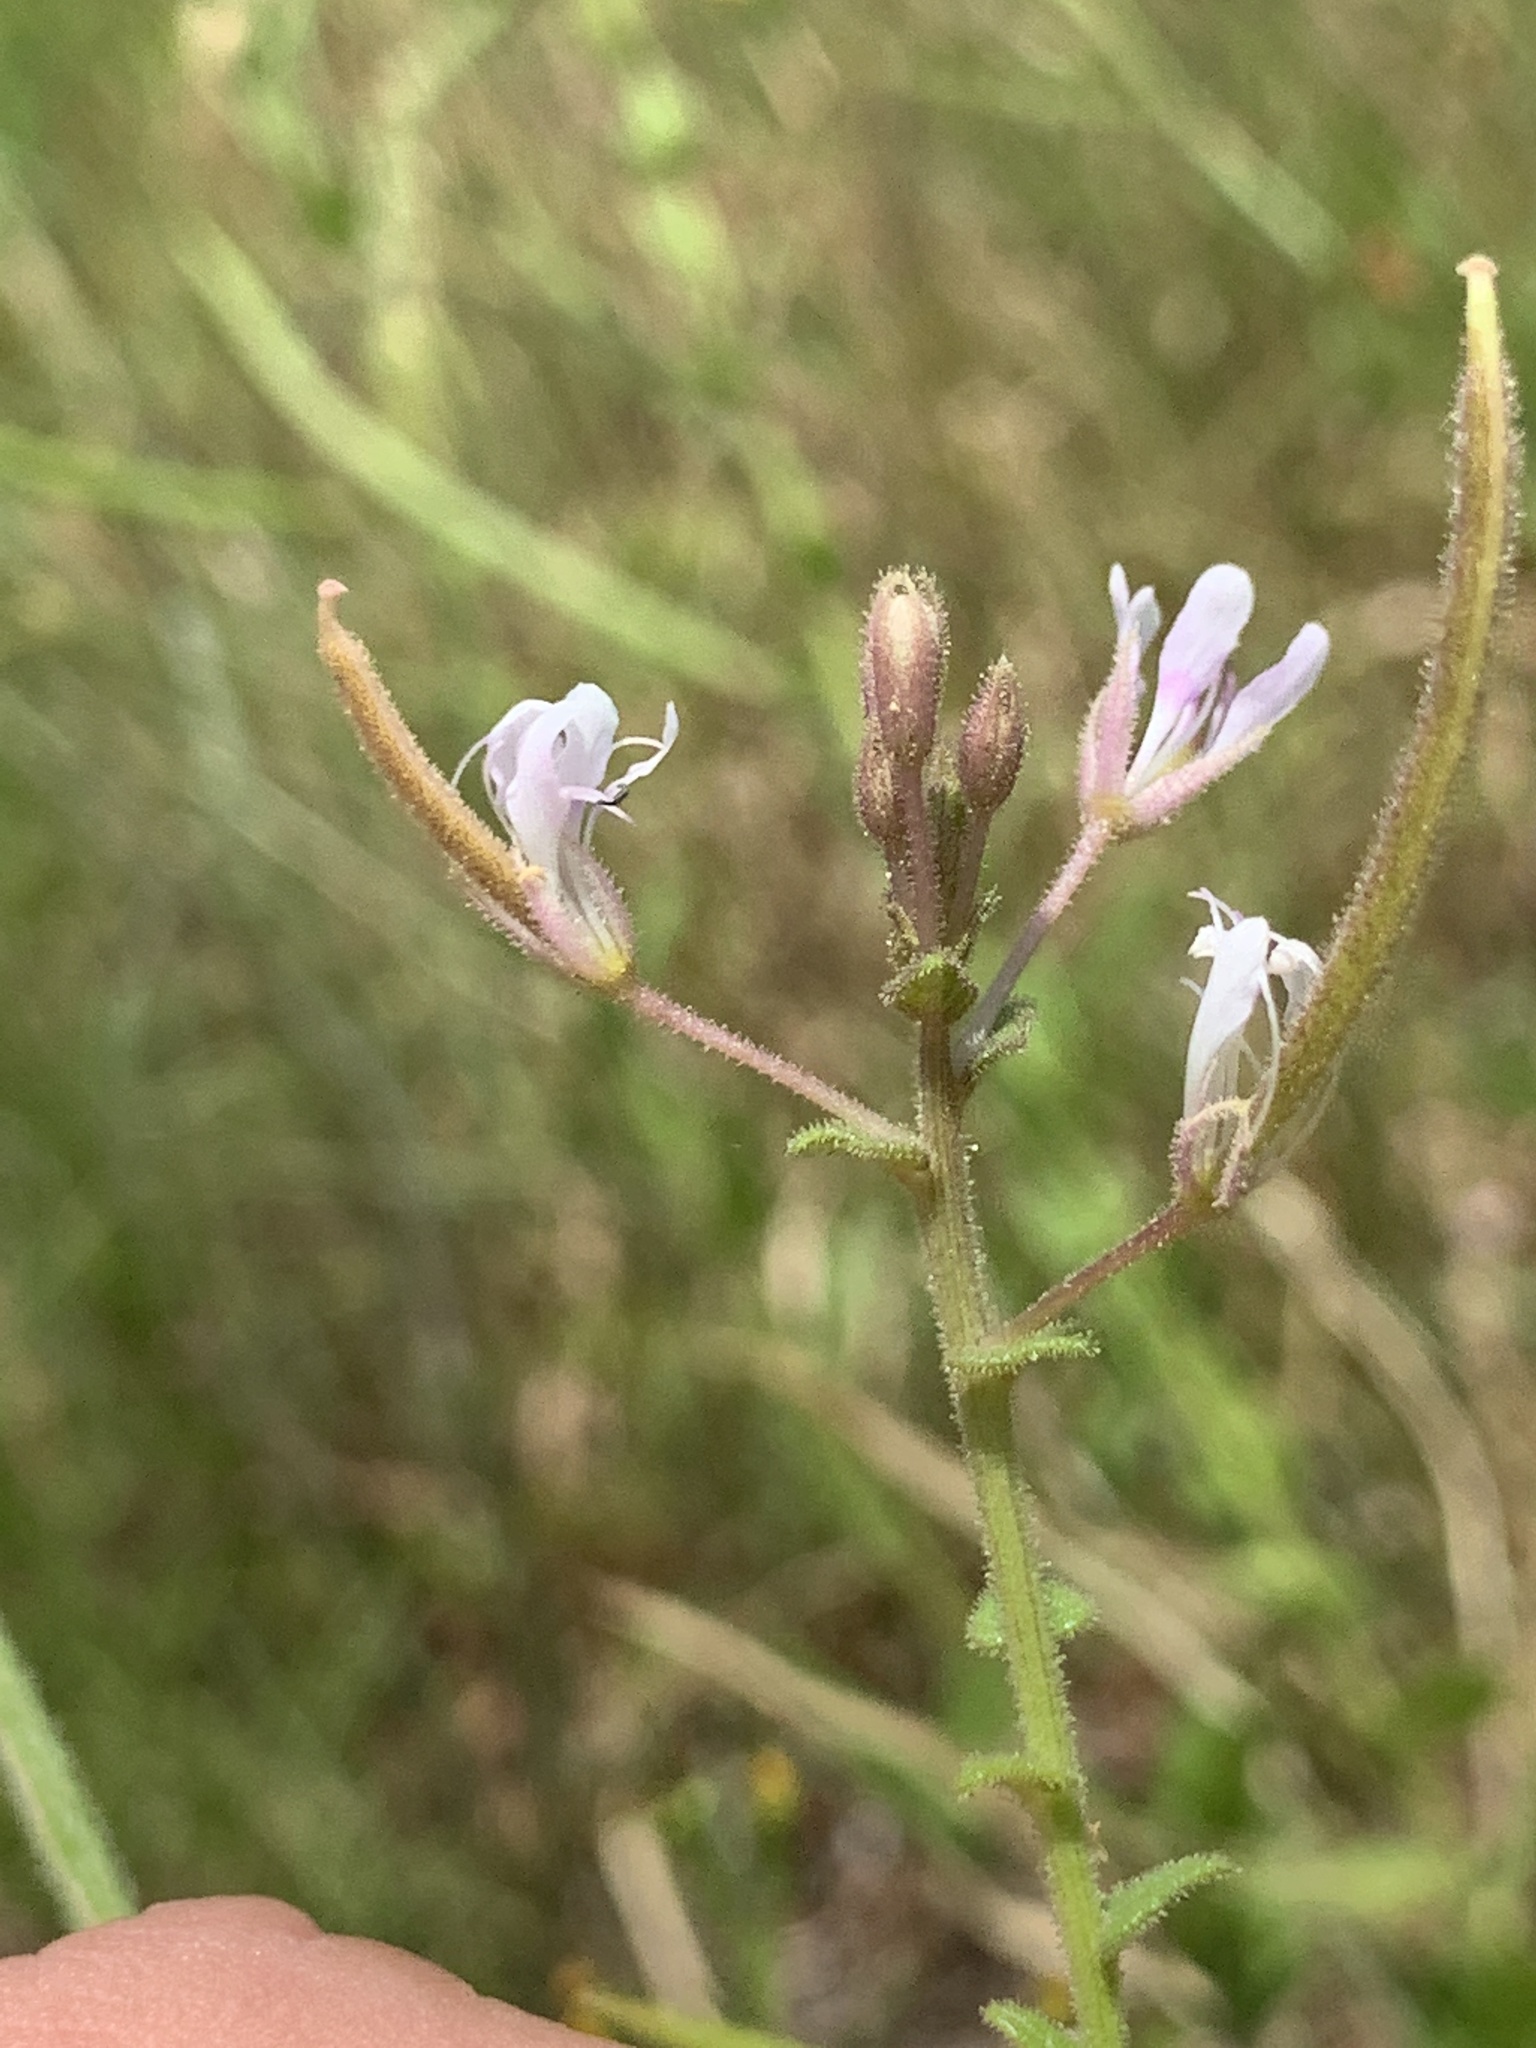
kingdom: Plantae
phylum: Tracheophyta
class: Magnoliopsida
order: Brassicales
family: Cleomaceae
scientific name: Cleomaceae
